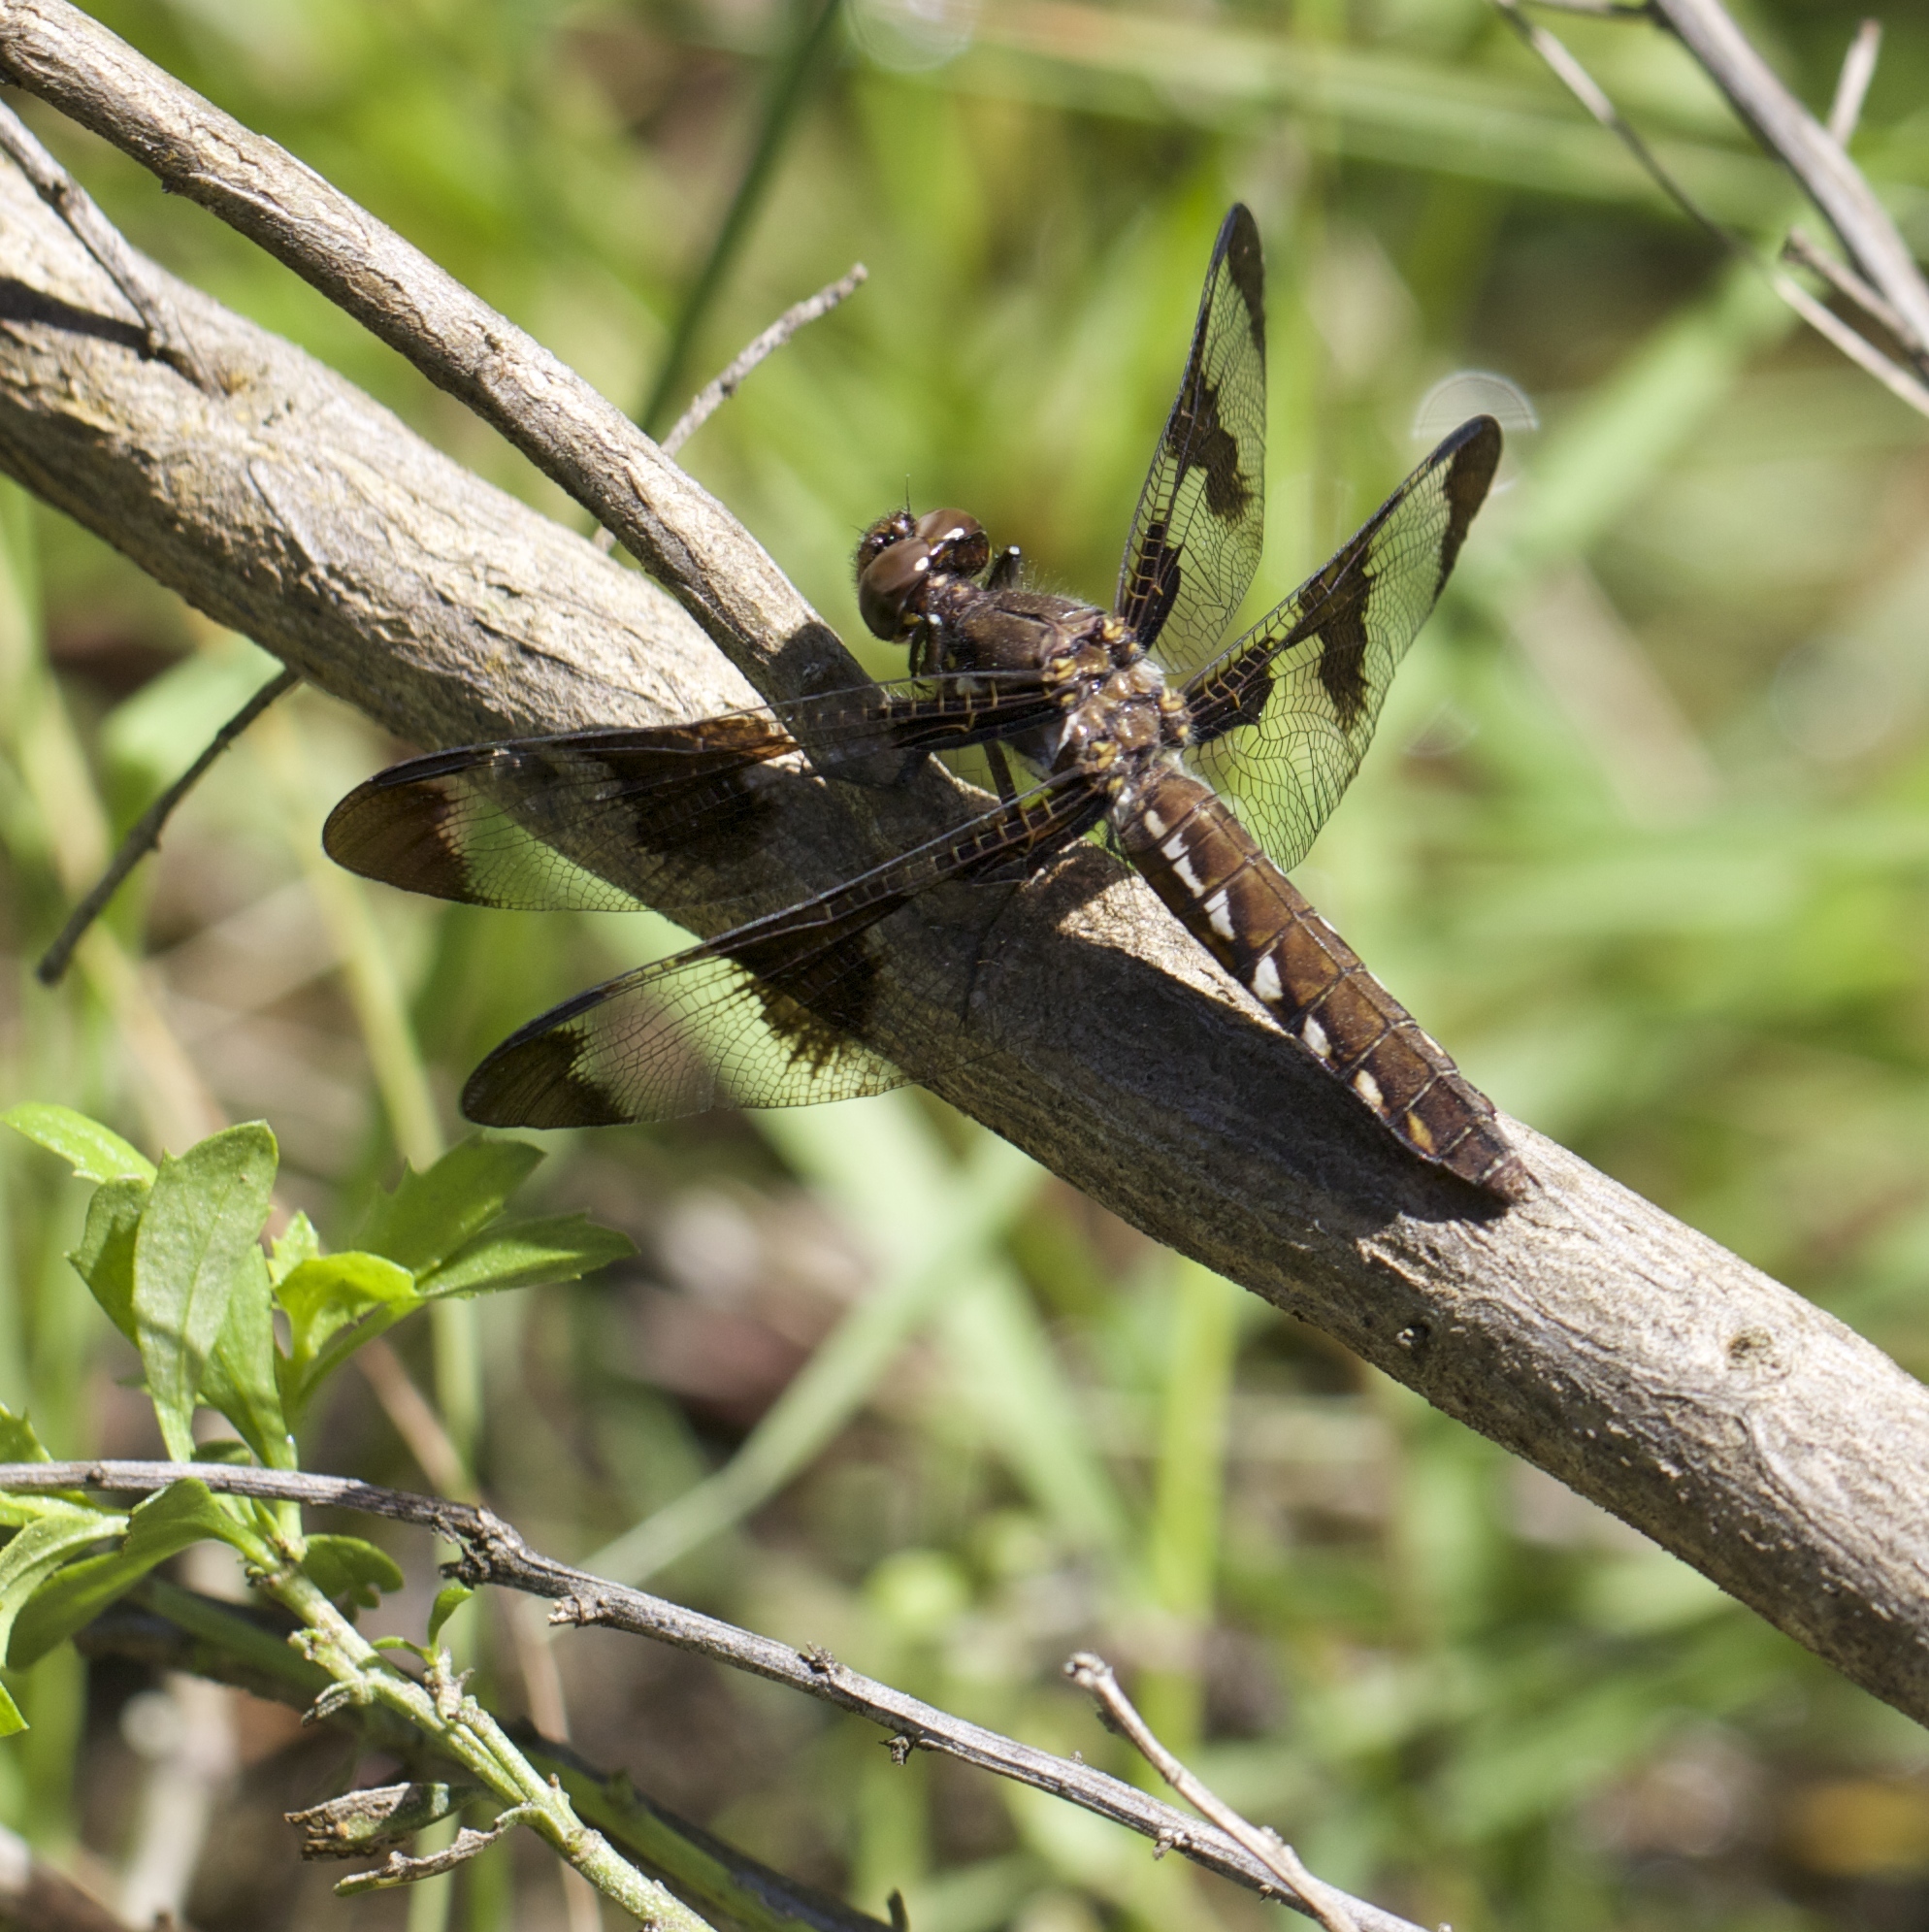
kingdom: Animalia
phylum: Arthropoda
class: Insecta
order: Odonata
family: Libellulidae
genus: Plathemis
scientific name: Plathemis lydia
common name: Common whitetail
